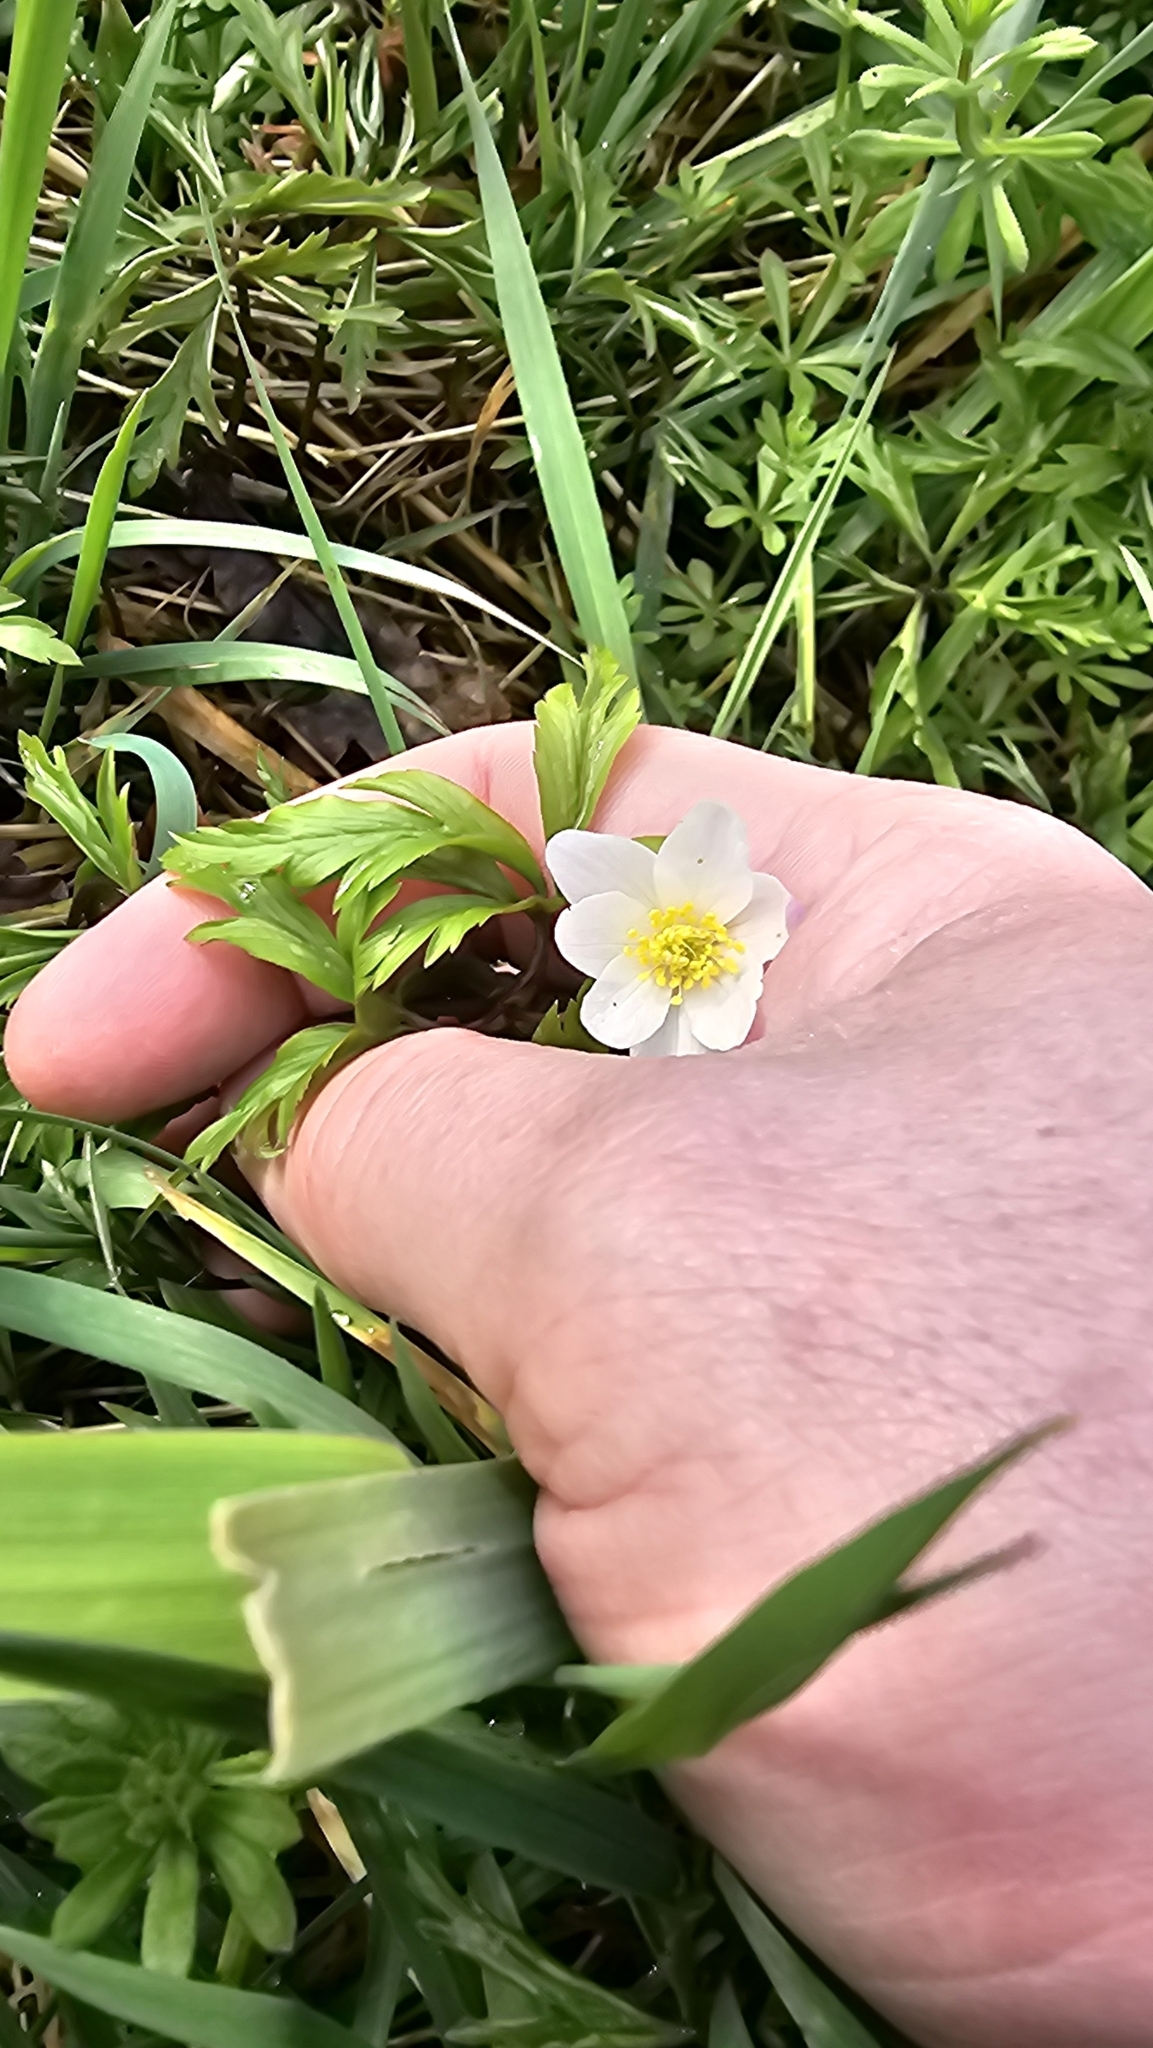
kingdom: Plantae
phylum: Tracheophyta
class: Magnoliopsida
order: Ranunculales
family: Ranunculaceae
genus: Anemone
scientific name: Anemone nemorosa
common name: Wood anemone
